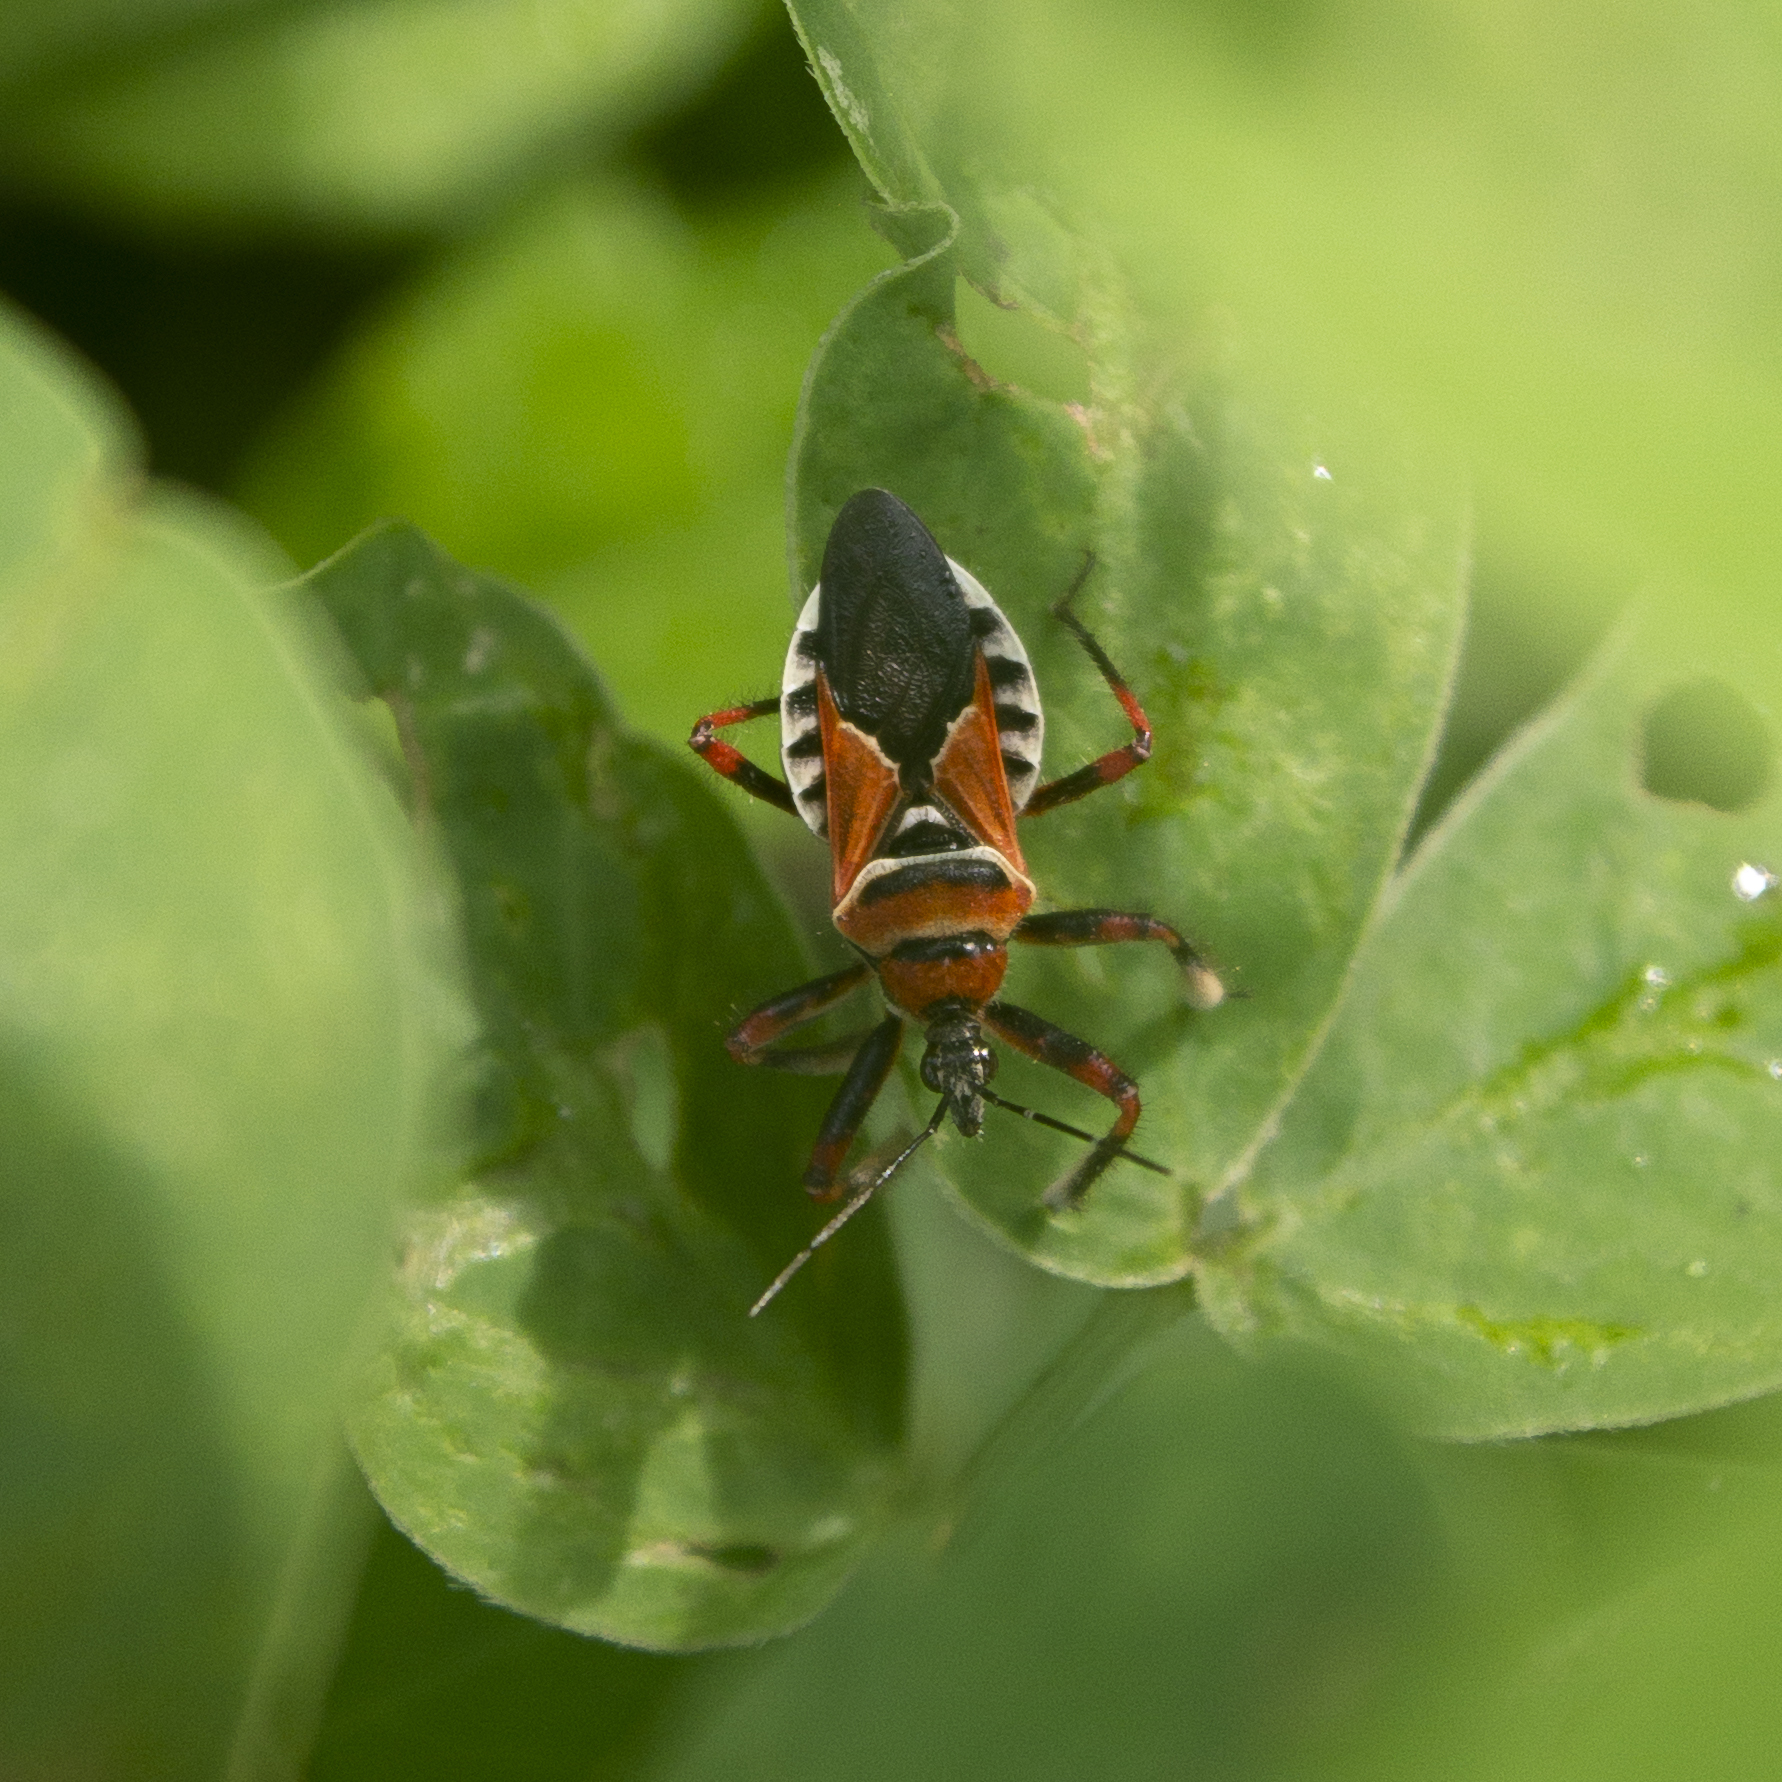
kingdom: Animalia
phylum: Arthropoda
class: Insecta
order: Hemiptera
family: Reduviidae
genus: Apiomerus
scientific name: Apiomerus pictipes
